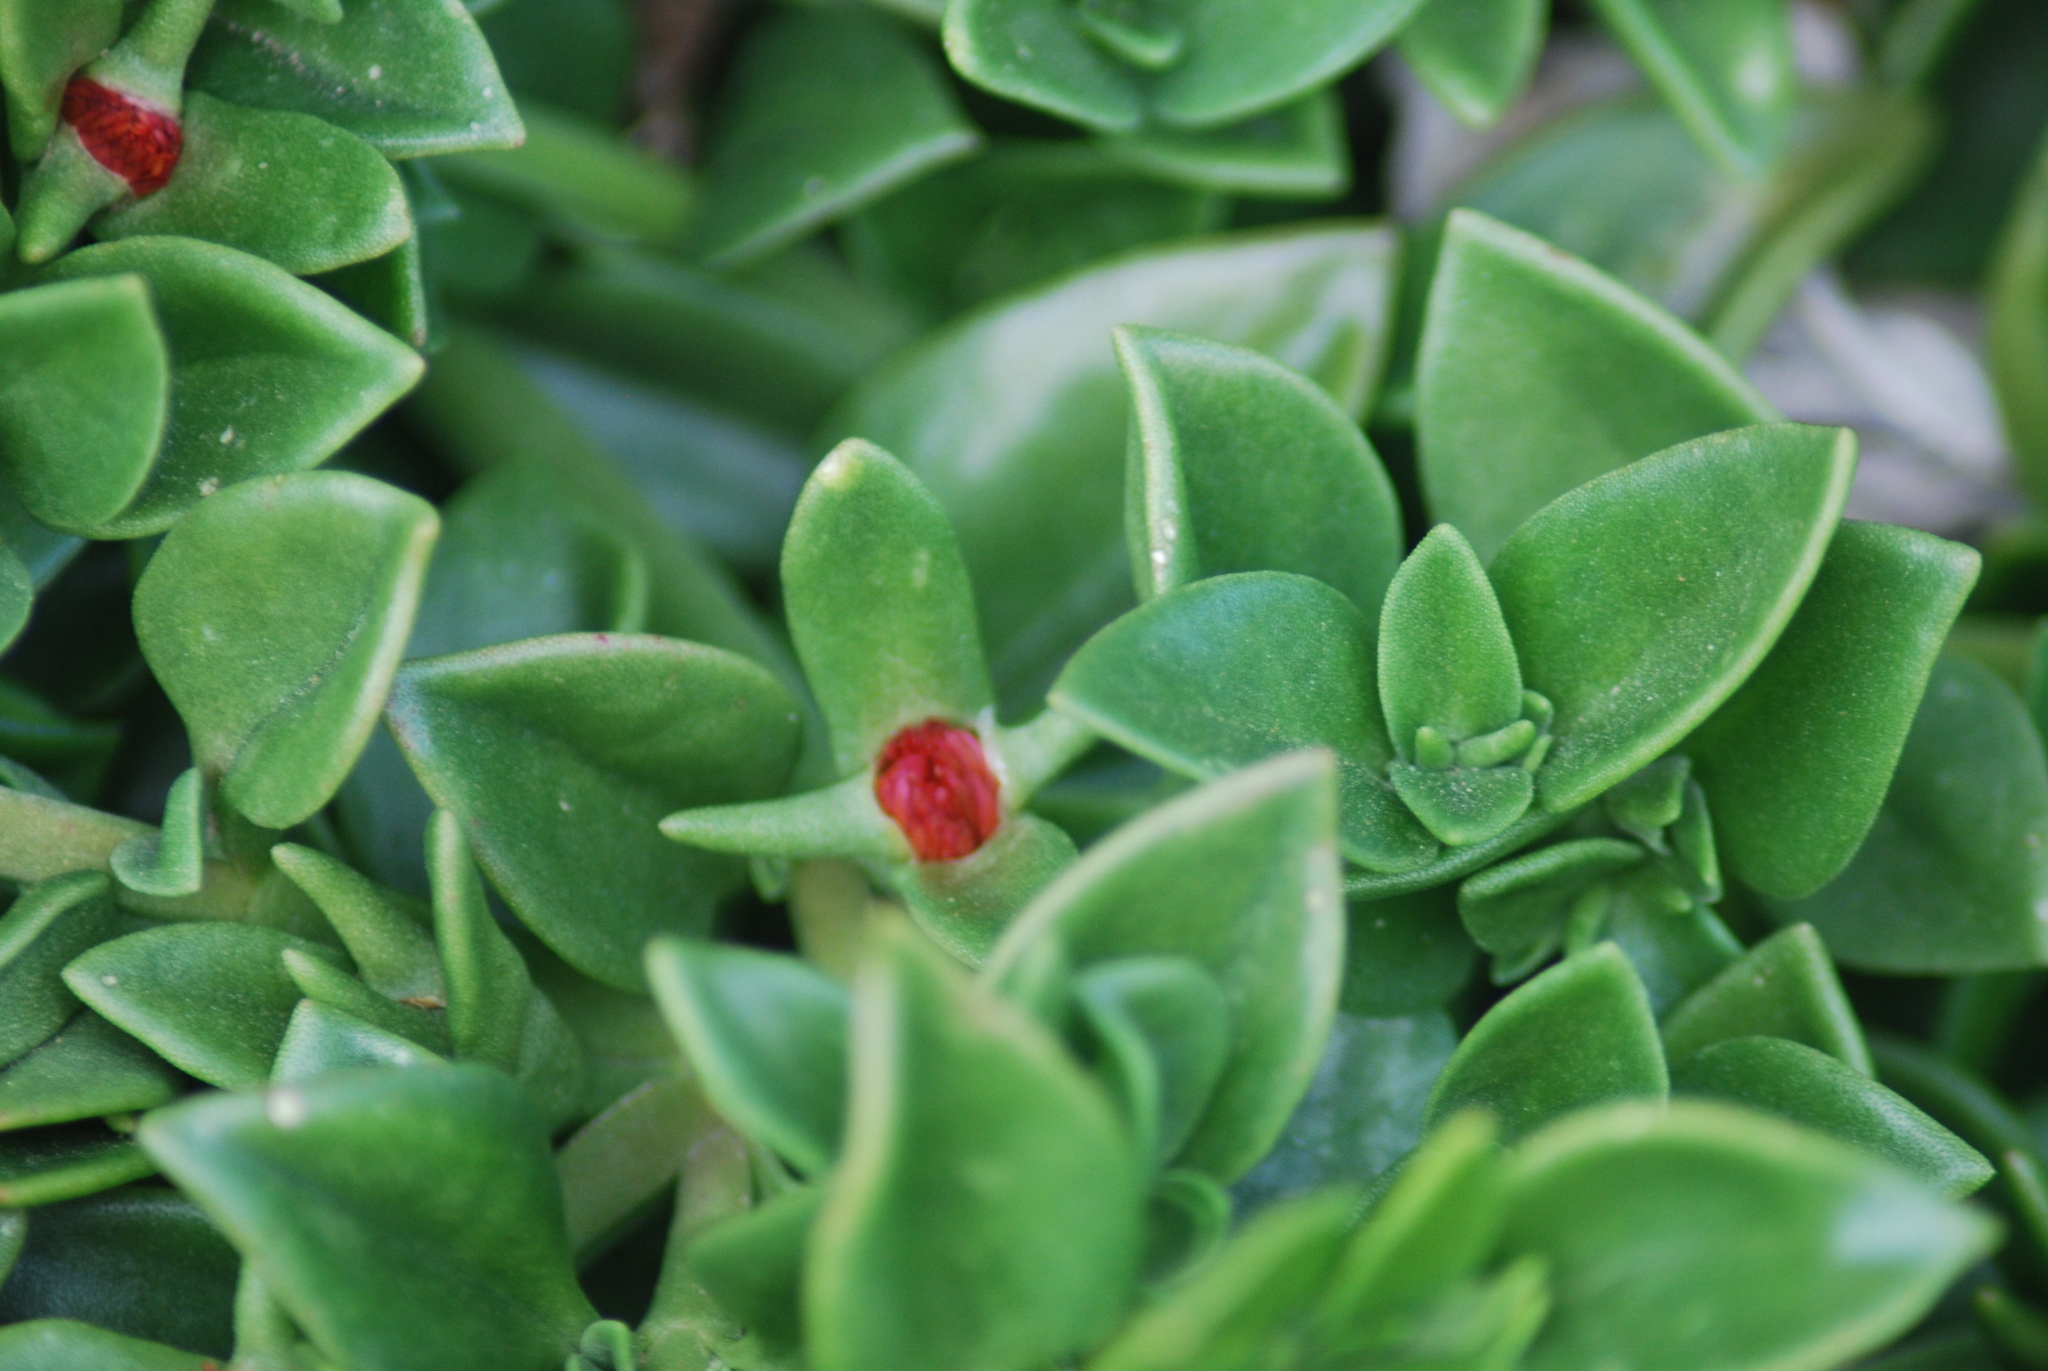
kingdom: Plantae
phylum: Tracheophyta
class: Magnoliopsida
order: Caryophyllales
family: Aizoaceae
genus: Mesembryanthemum
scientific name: Mesembryanthemum cordifolium
